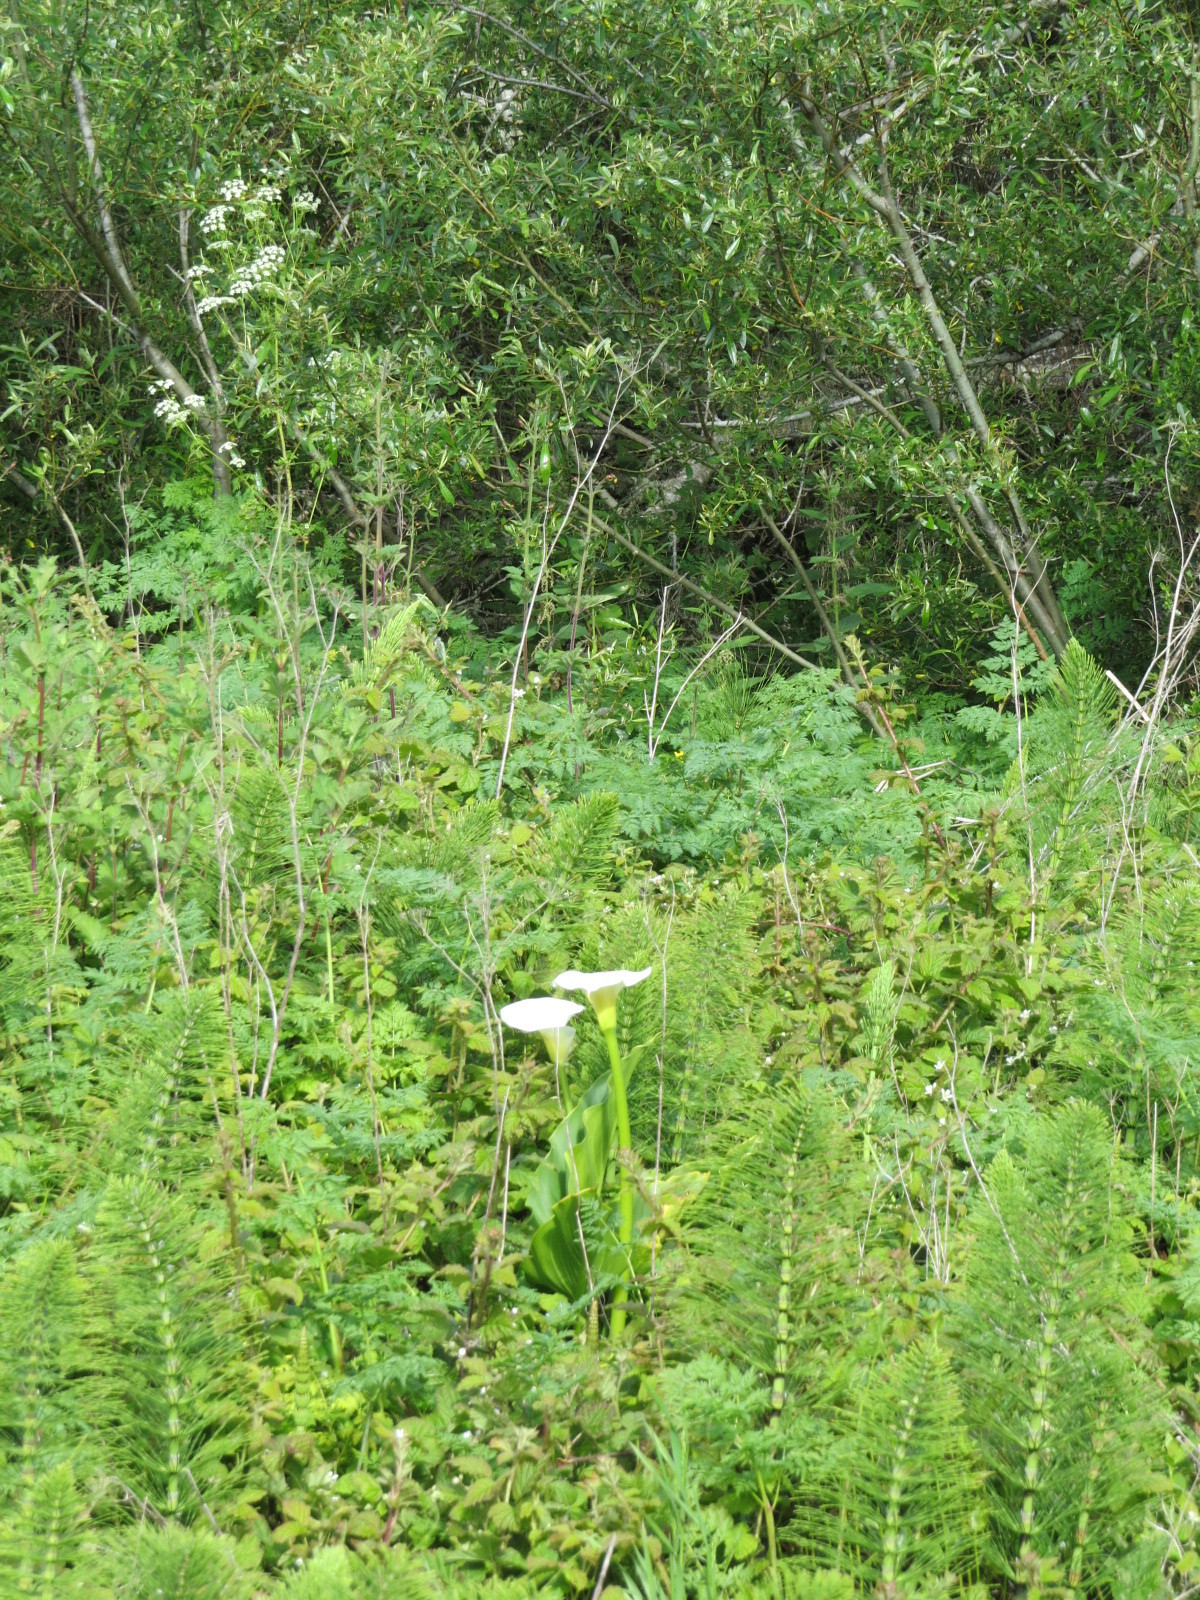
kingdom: Plantae
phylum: Tracheophyta
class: Liliopsida
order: Alismatales
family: Araceae
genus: Zantedeschia
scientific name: Zantedeschia aethiopica
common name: Altar-lily
